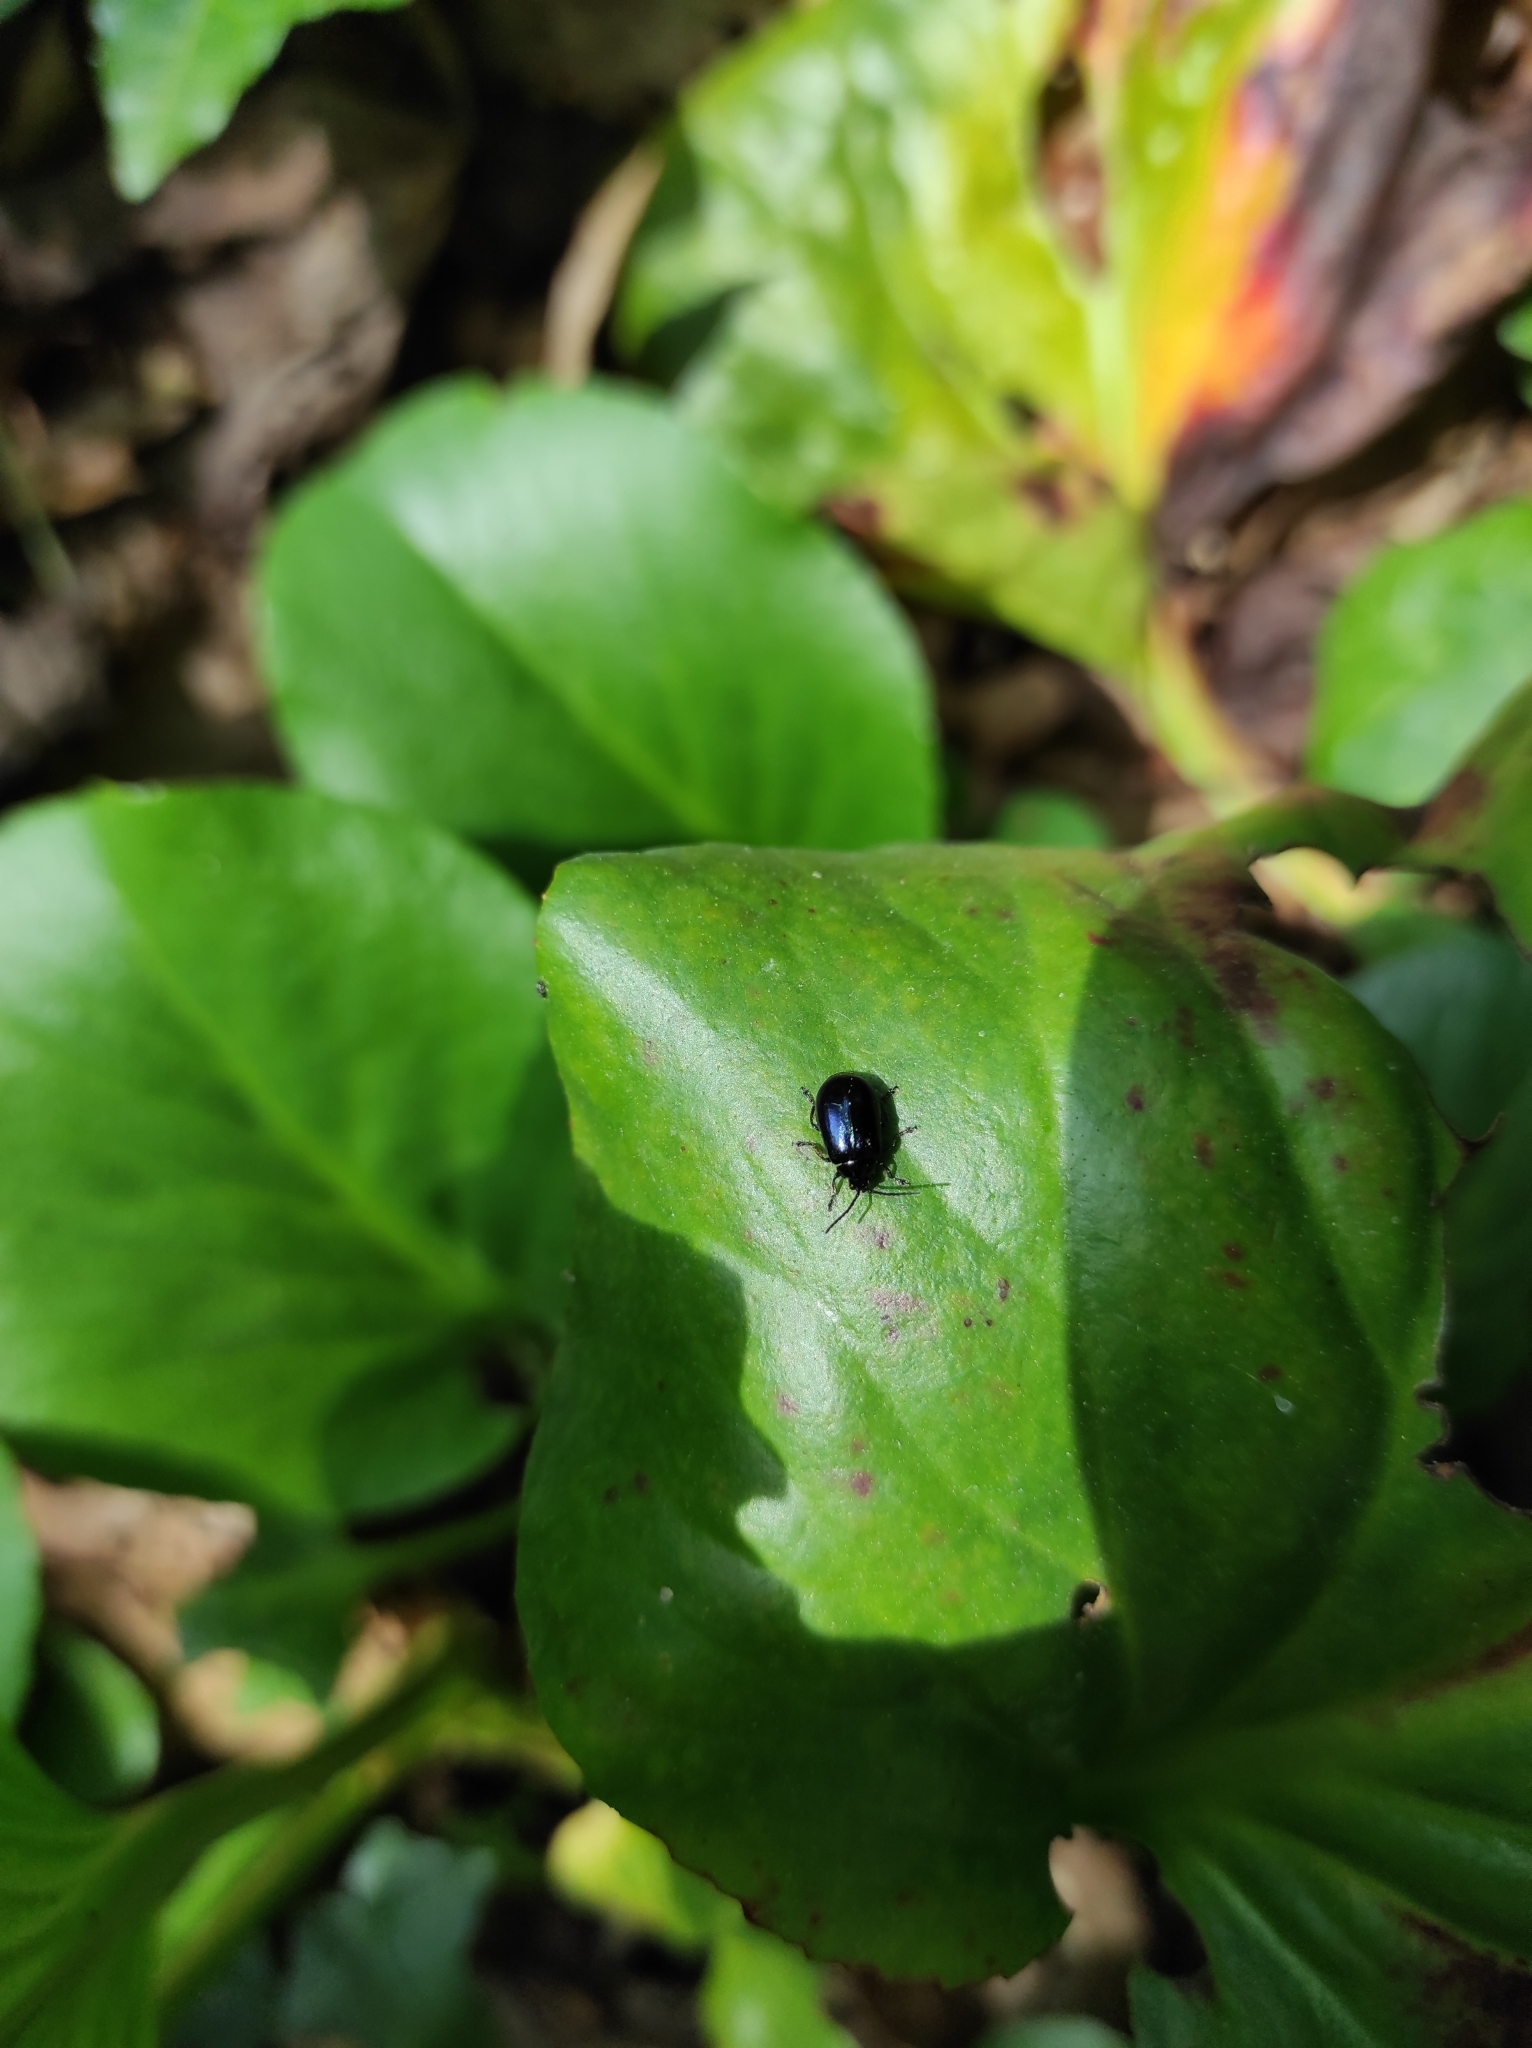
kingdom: Animalia
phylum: Arthropoda
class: Insecta
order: Coleoptera
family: Chrysomelidae
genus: Agelastica
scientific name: Agelastica alni
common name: Alder leaf beetle
